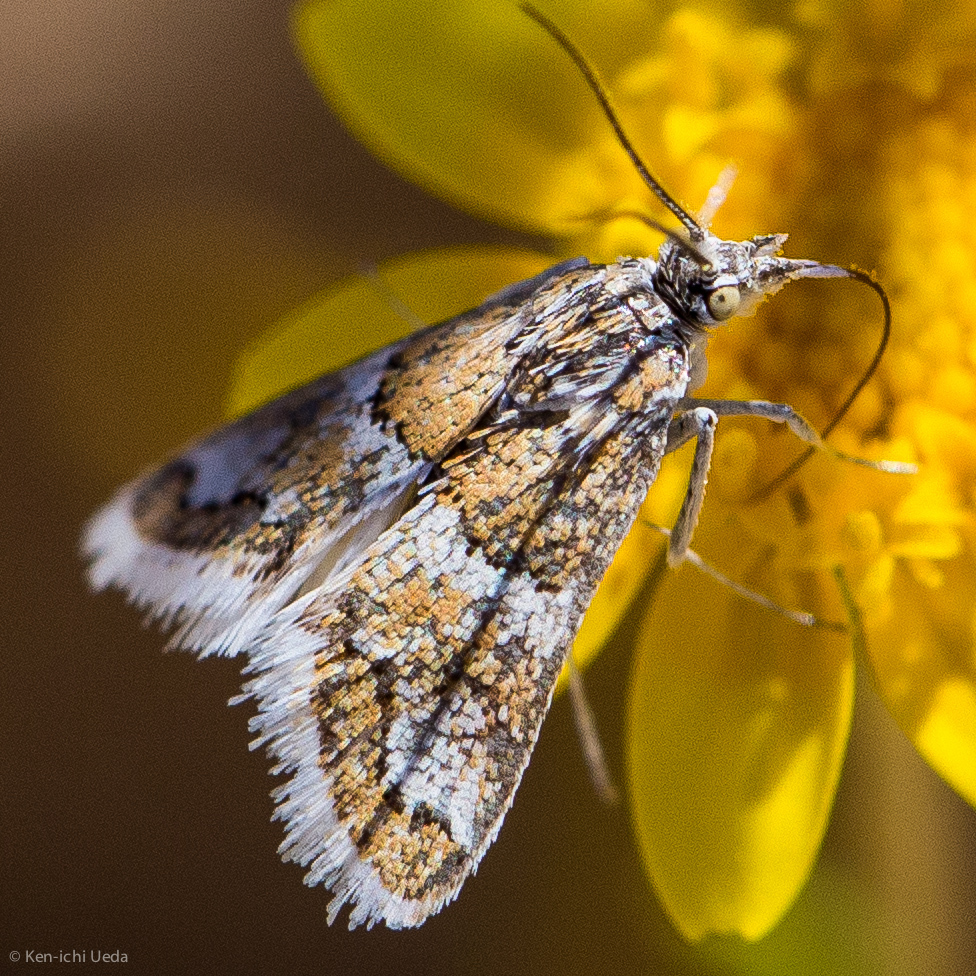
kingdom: Animalia
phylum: Arthropoda
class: Insecta
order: Lepidoptera
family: Crambidae
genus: Nannobotys
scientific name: Nannobotys commortalis
